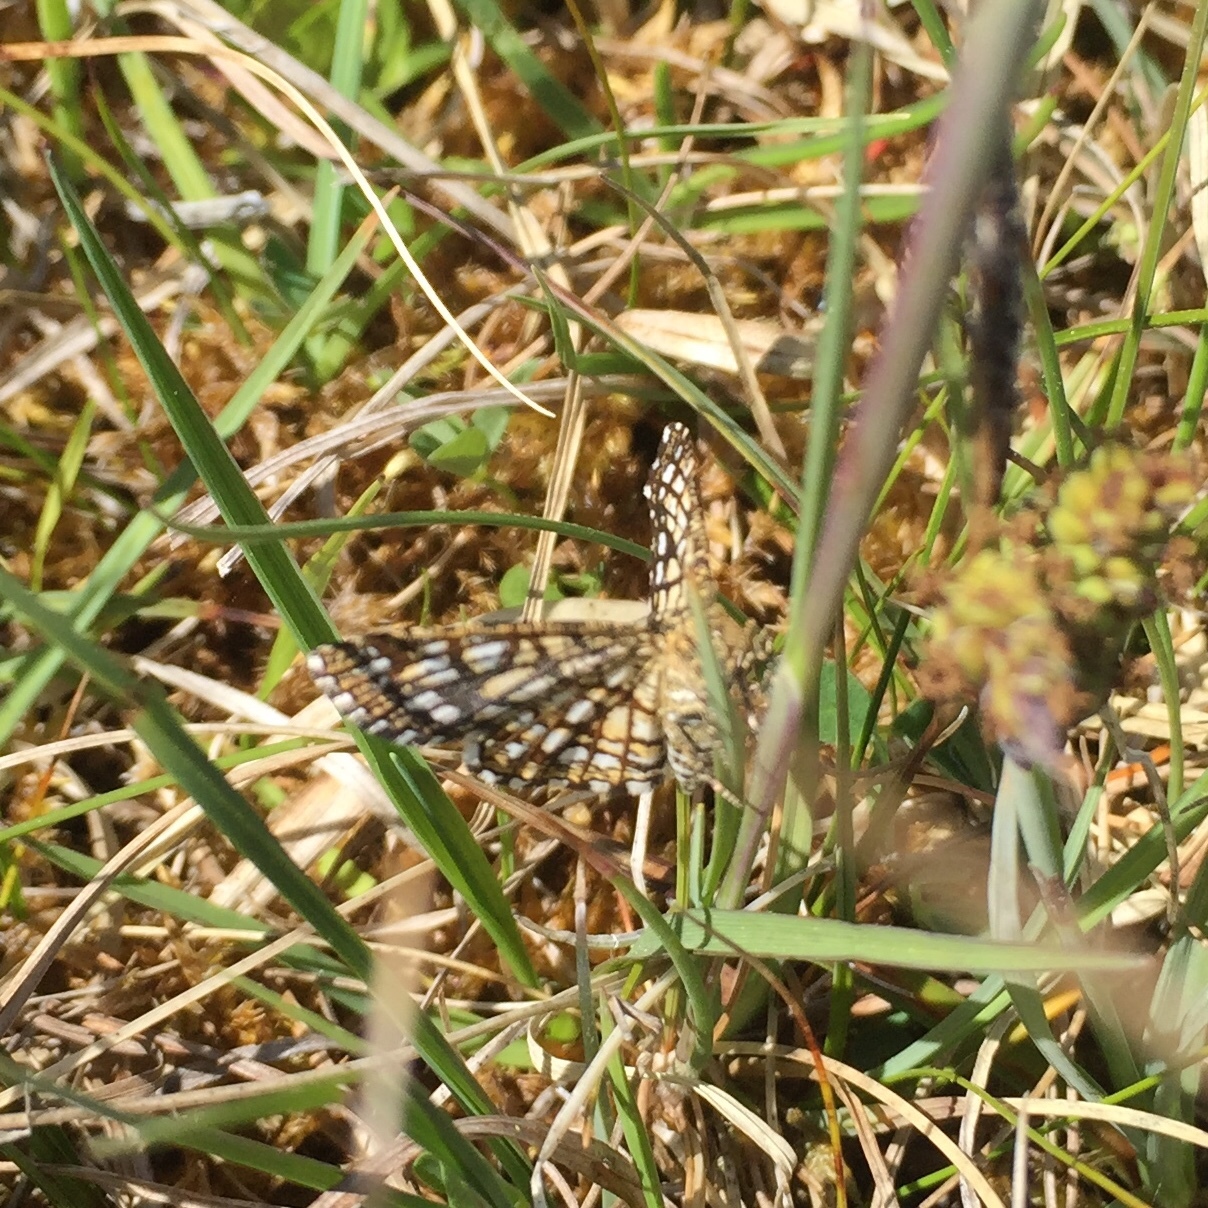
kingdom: Animalia
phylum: Arthropoda
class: Insecta
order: Lepidoptera
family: Geometridae
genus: Chiasmia
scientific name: Chiasmia clathrata
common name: Latticed heath
